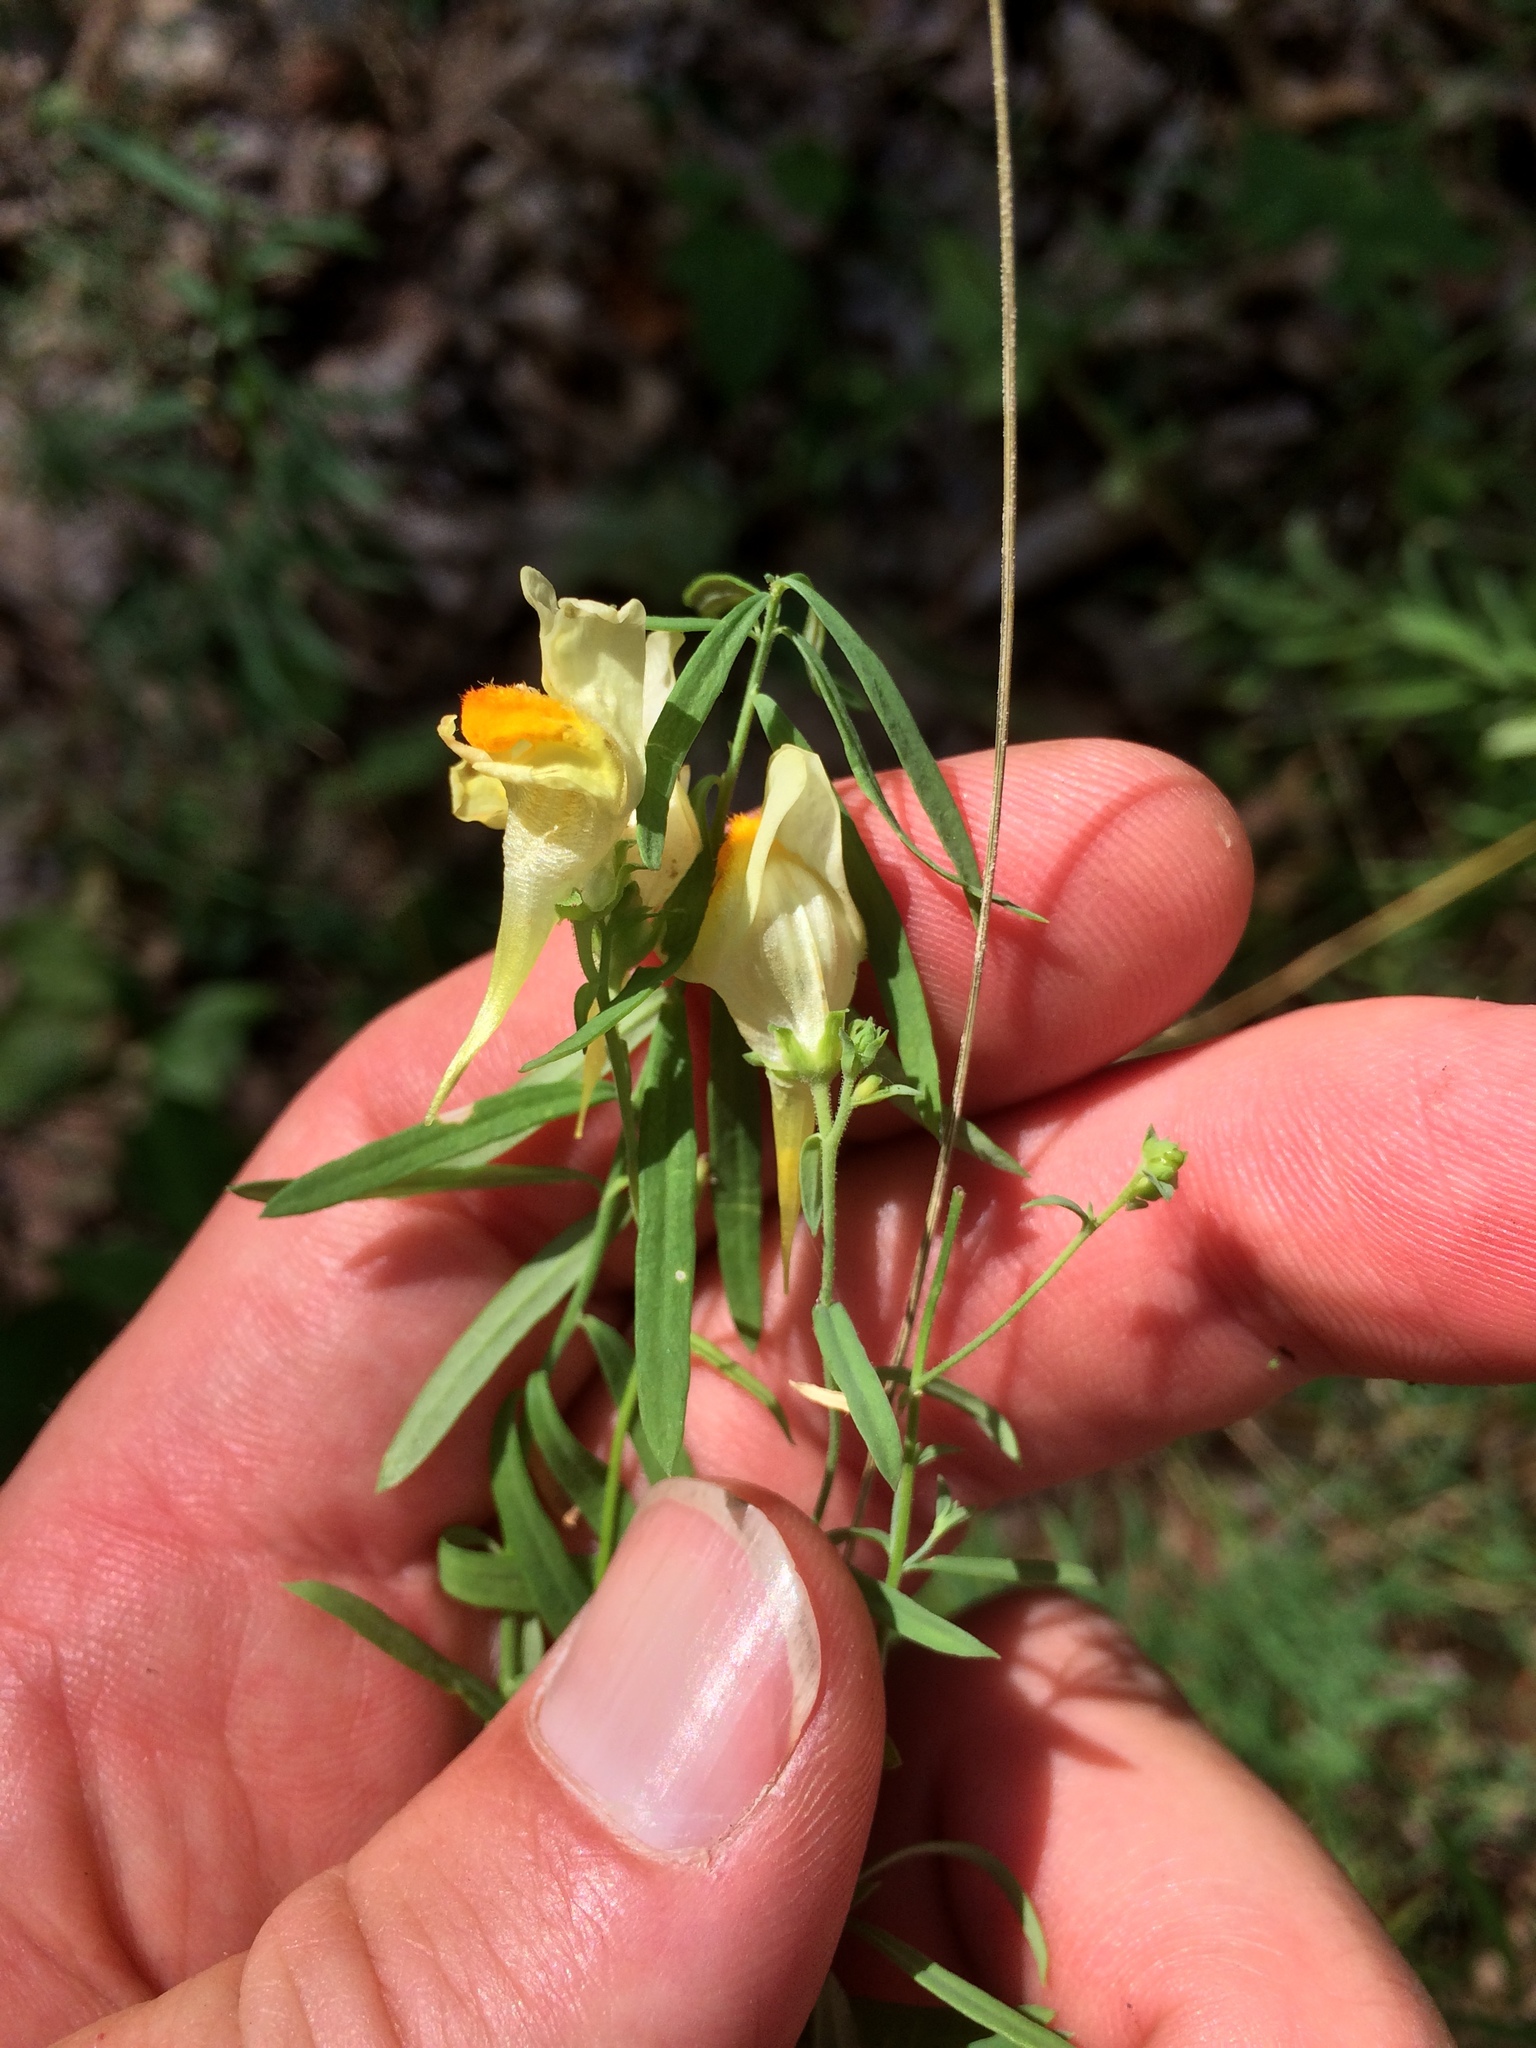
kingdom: Plantae
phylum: Tracheophyta
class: Magnoliopsida
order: Lamiales
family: Plantaginaceae
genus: Linaria
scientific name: Linaria vulgaris
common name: Butter and eggs
